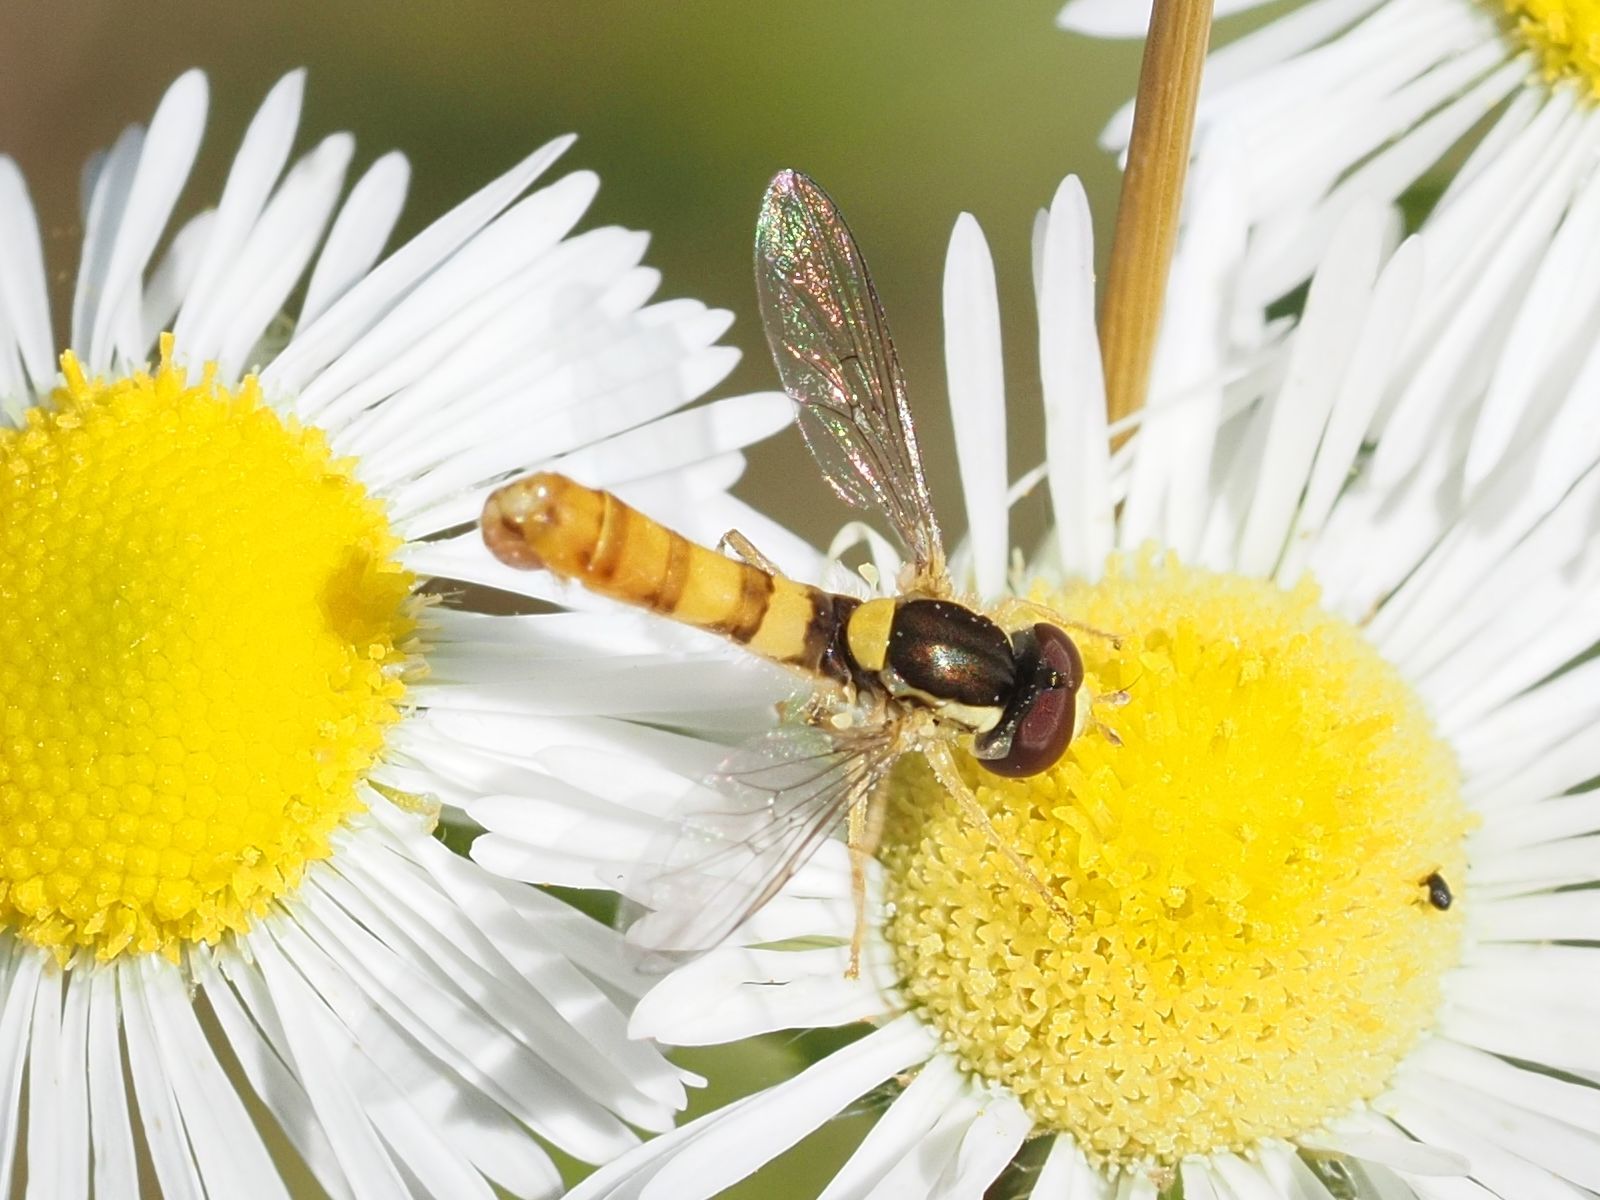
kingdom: Animalia
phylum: Arthropoda
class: Insecta
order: Diptera
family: Syrphidae
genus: Sphaerophoria
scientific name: Sphaerophoria
